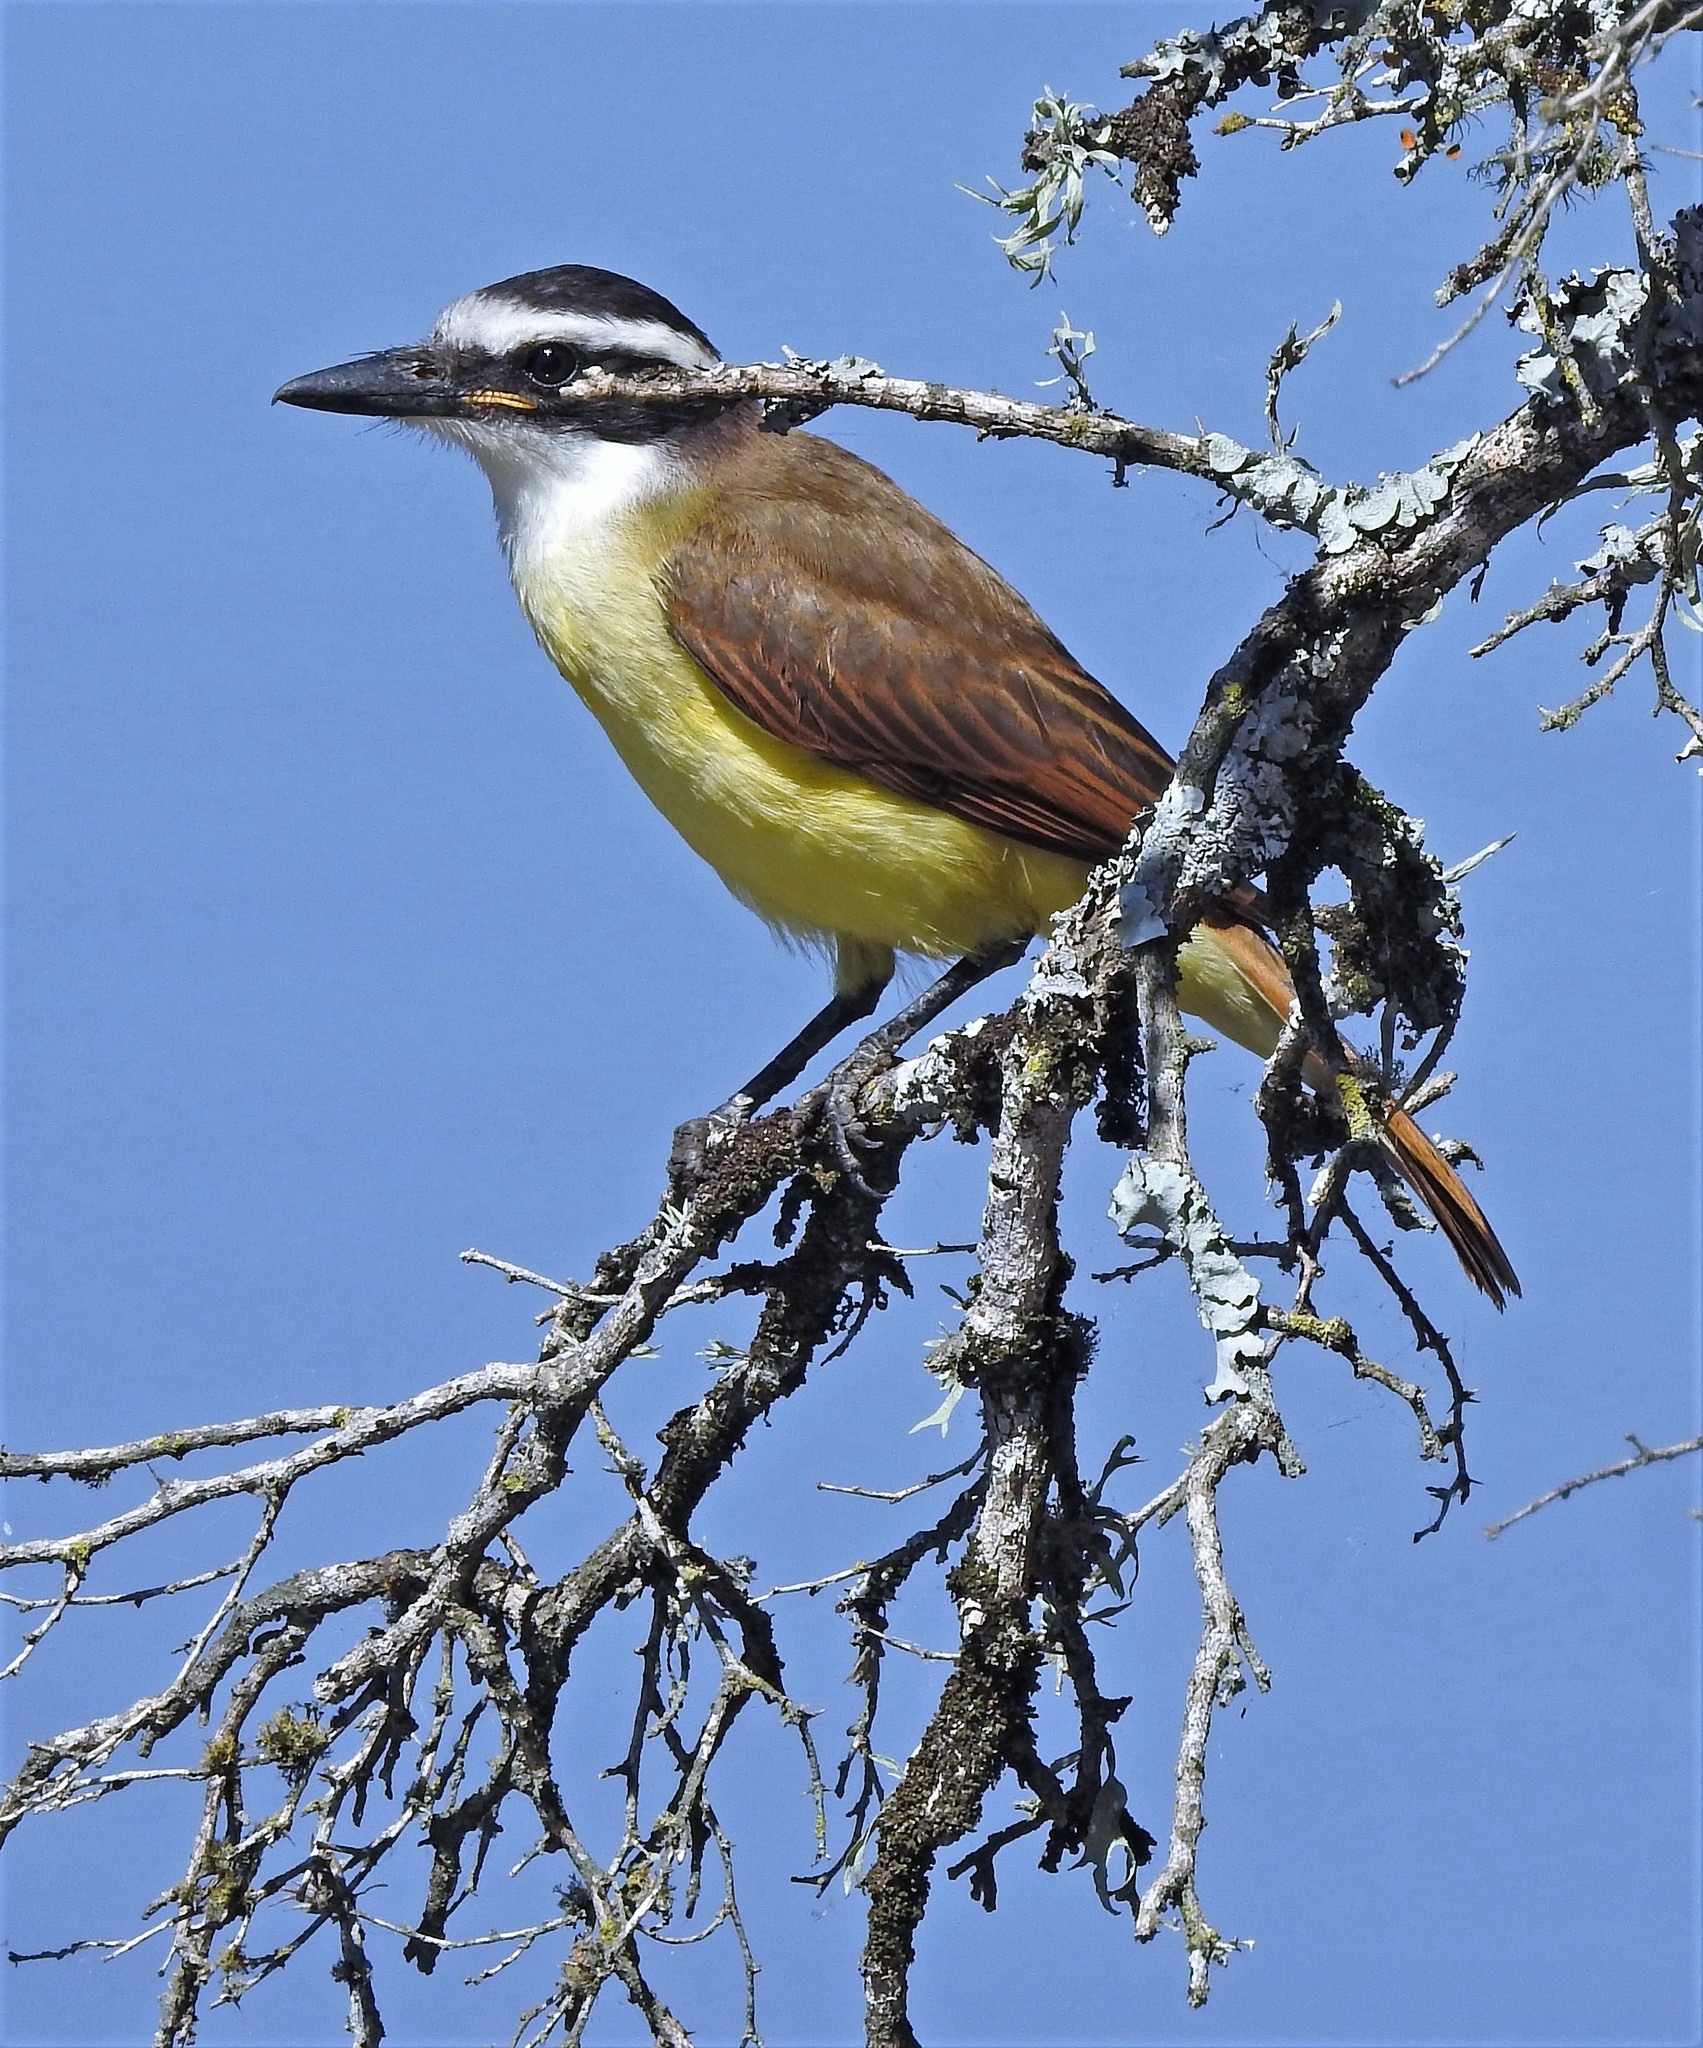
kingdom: Animalia
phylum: Chordata
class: Aves
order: Passeriformes
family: Tyrannidae
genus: Pitangus
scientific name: Pitangus sulphuratus
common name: Great kiskadee
